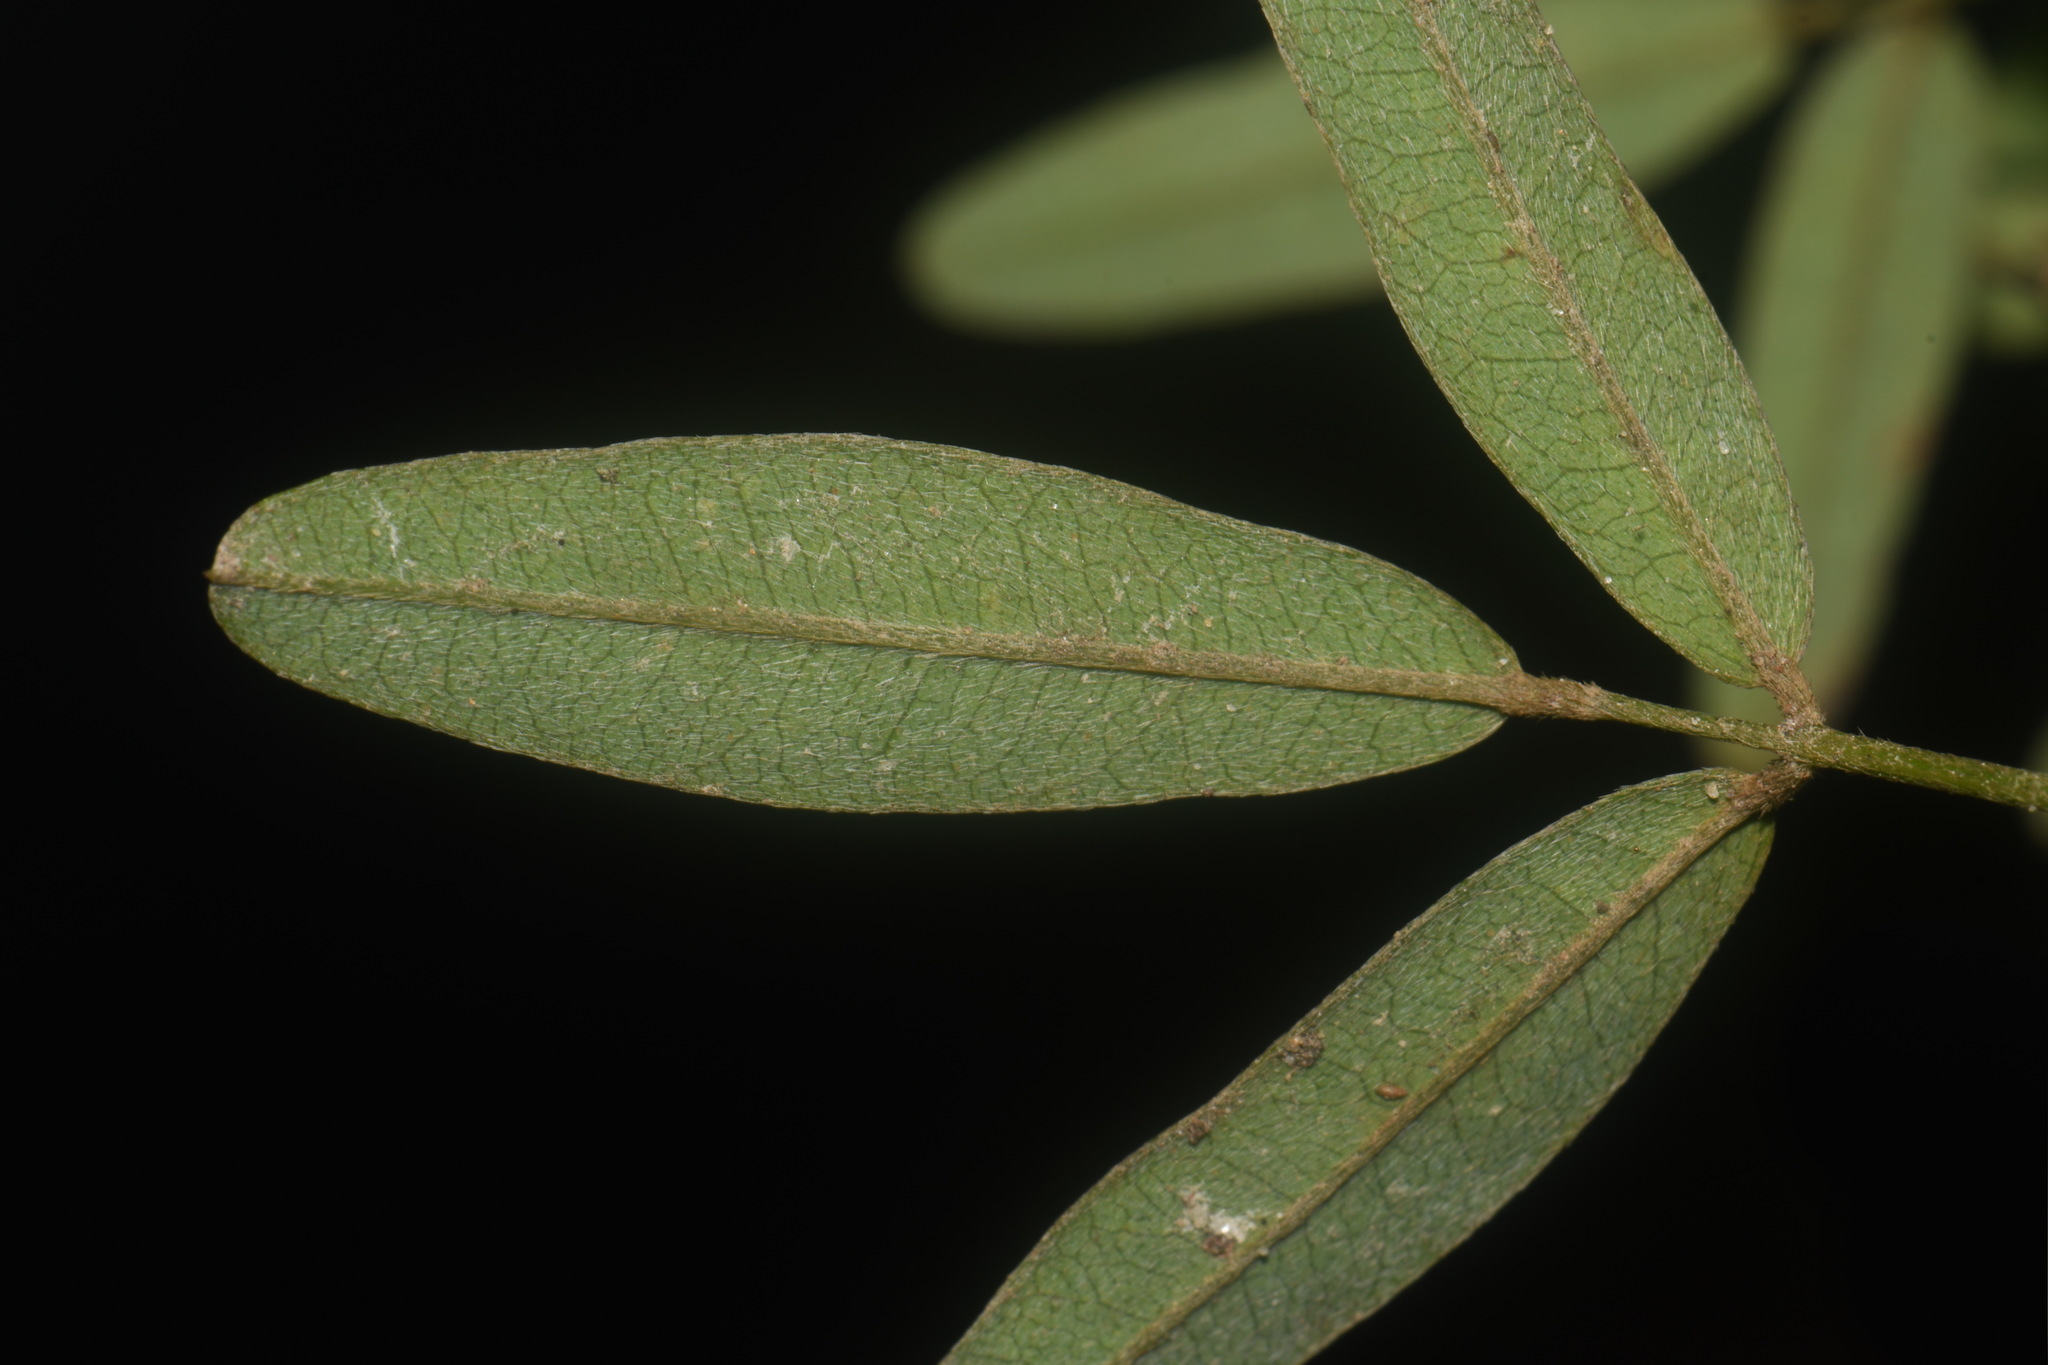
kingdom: Plantae
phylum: Tracheophyta
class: Magnoliopsida
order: Fabales
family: Fabaceae
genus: Lespedeza
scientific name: Lespedeza virginica
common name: Slender bush-clover
